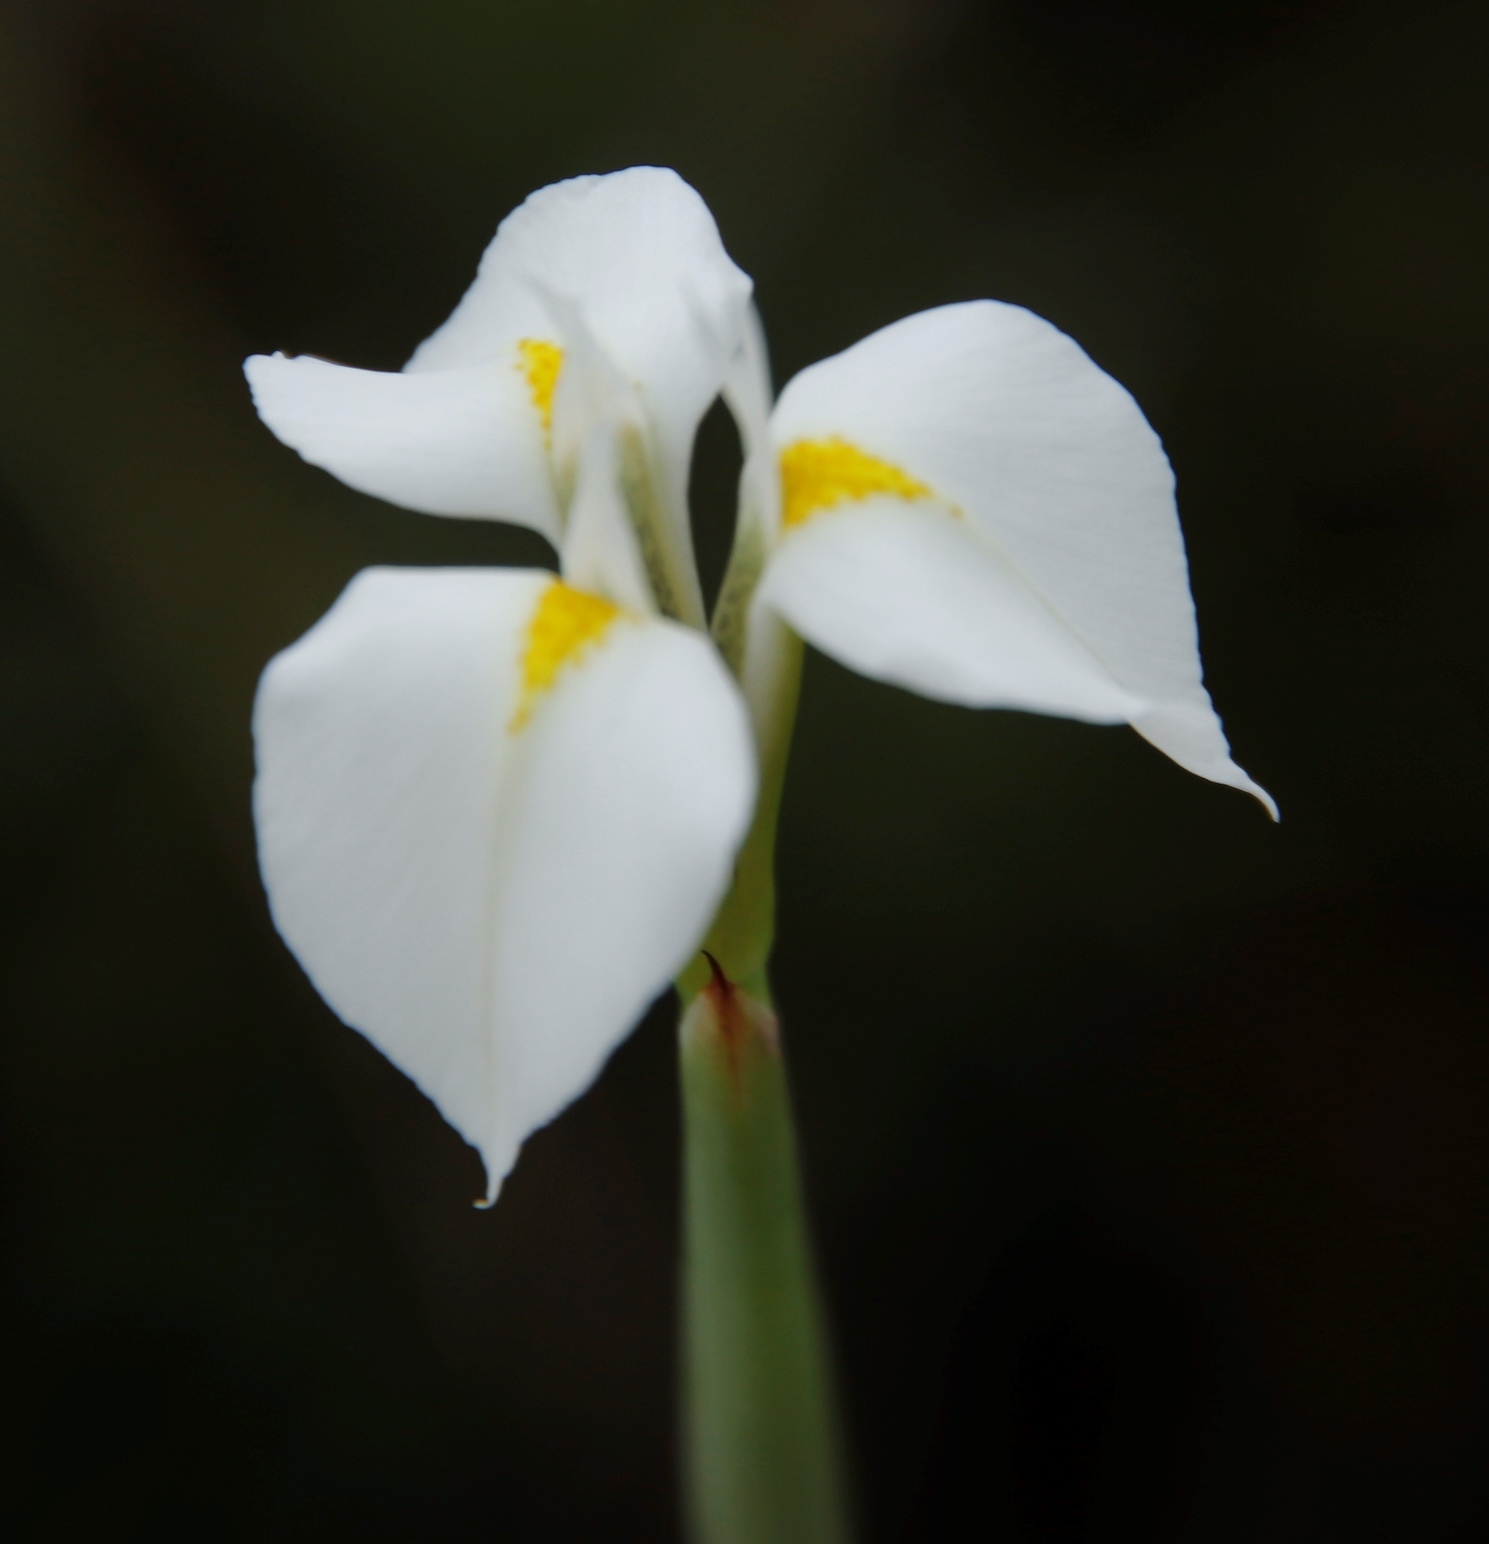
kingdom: Plantae
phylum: Tracheophyta
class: Liliopsida
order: Asparagales
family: Iridaceae
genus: Moraea
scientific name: Moraea albicuspa
